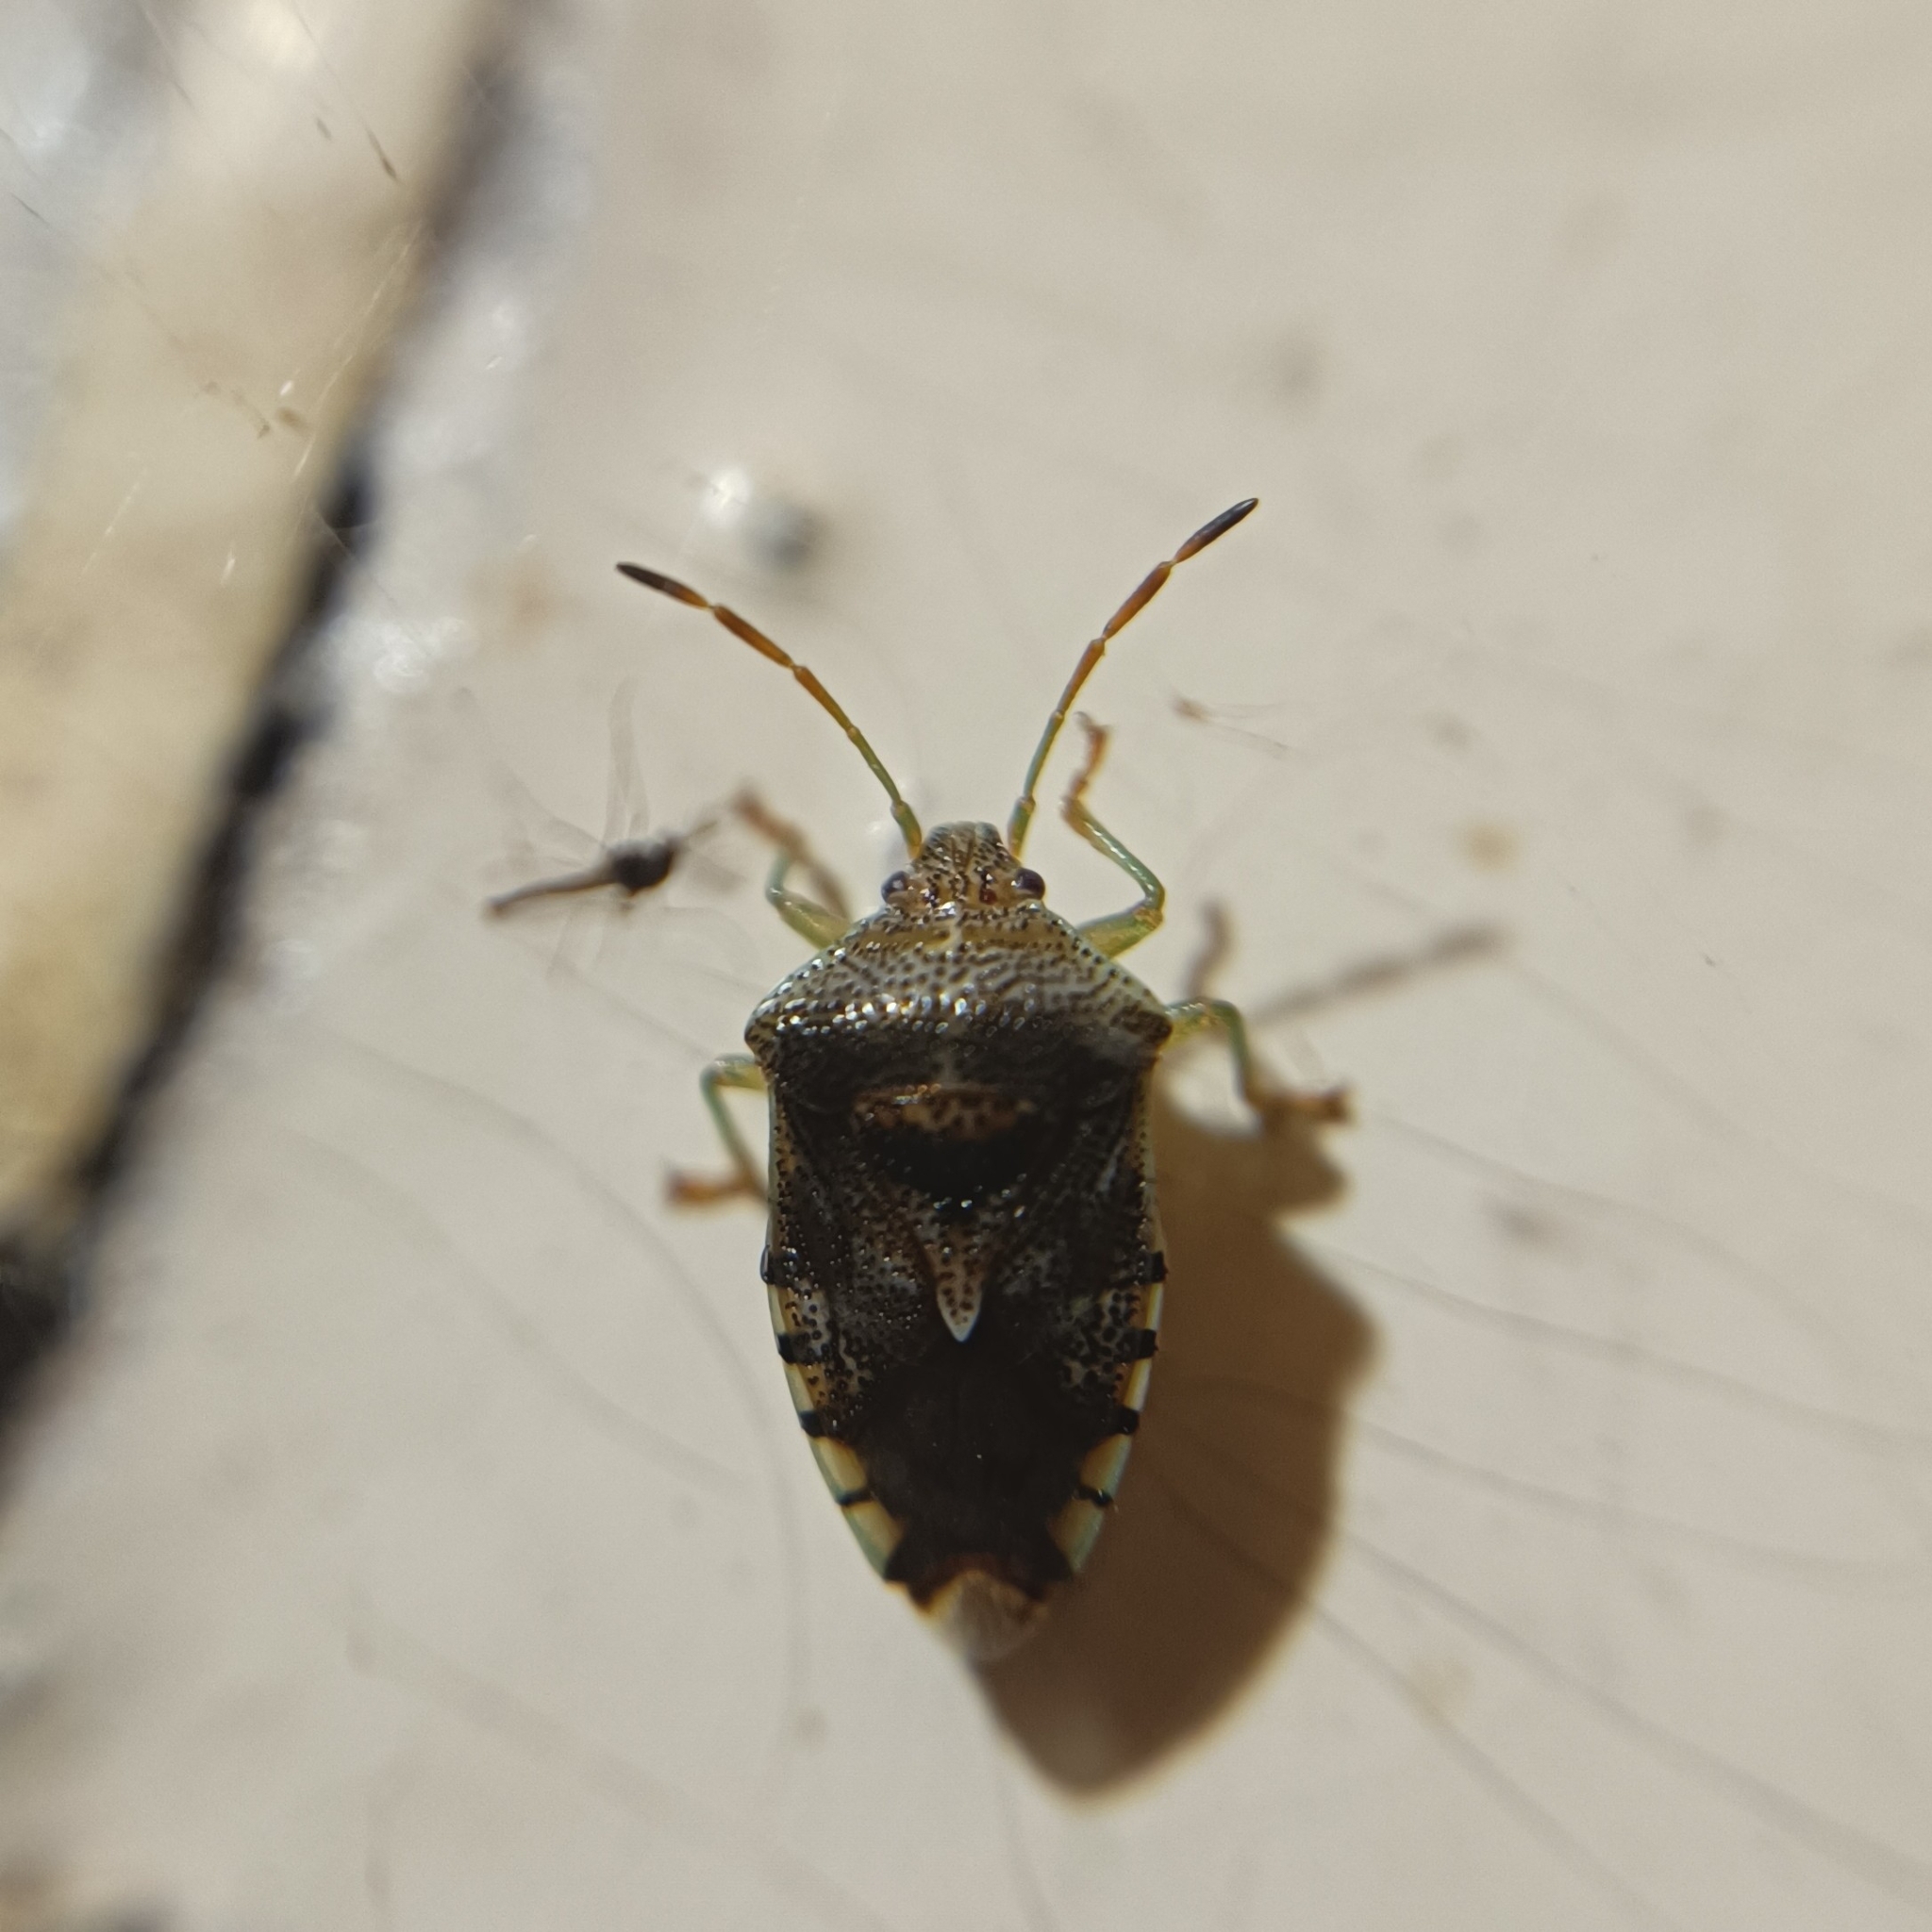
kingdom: Animalia
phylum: Arthropoda
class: Insecta
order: Hemiptera
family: Acanthosomatidae
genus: Elasmucha
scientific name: Elasmucha grisea
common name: Parent bug
